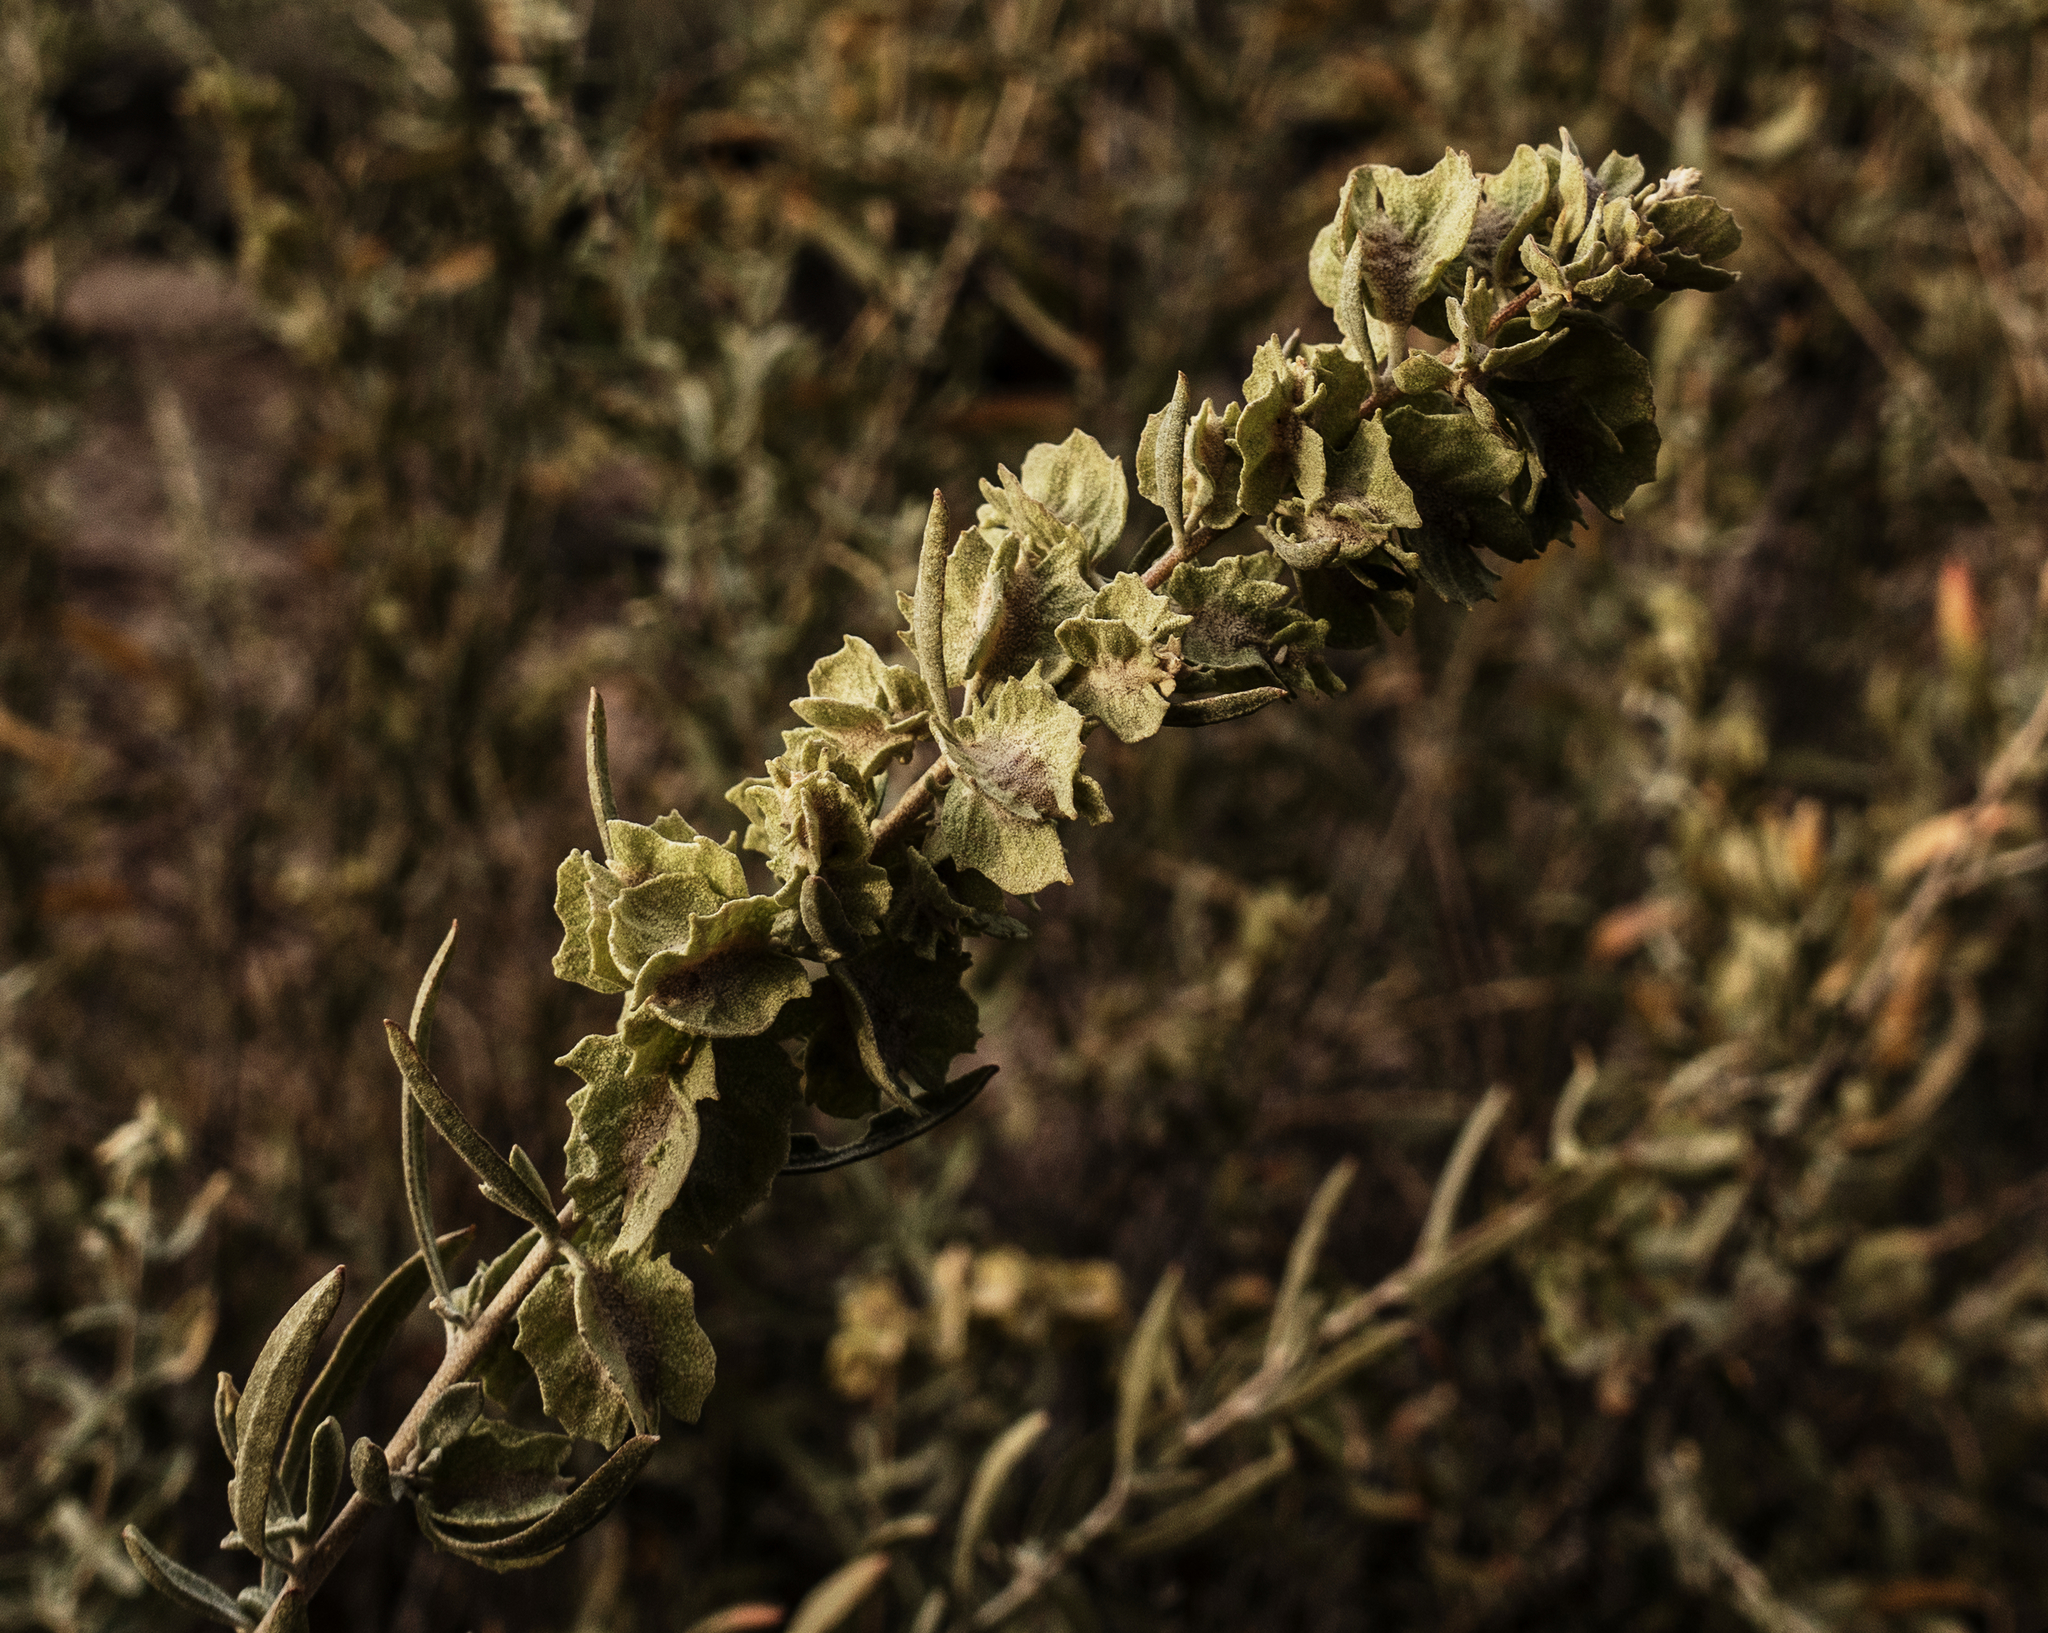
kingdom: Plantae
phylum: Tracheophyta
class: Magnoliopsida
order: Caryophyllales
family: Amaranthaceae
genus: Atriplex
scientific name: Atriplex canescens
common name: Four-wing saltbush
